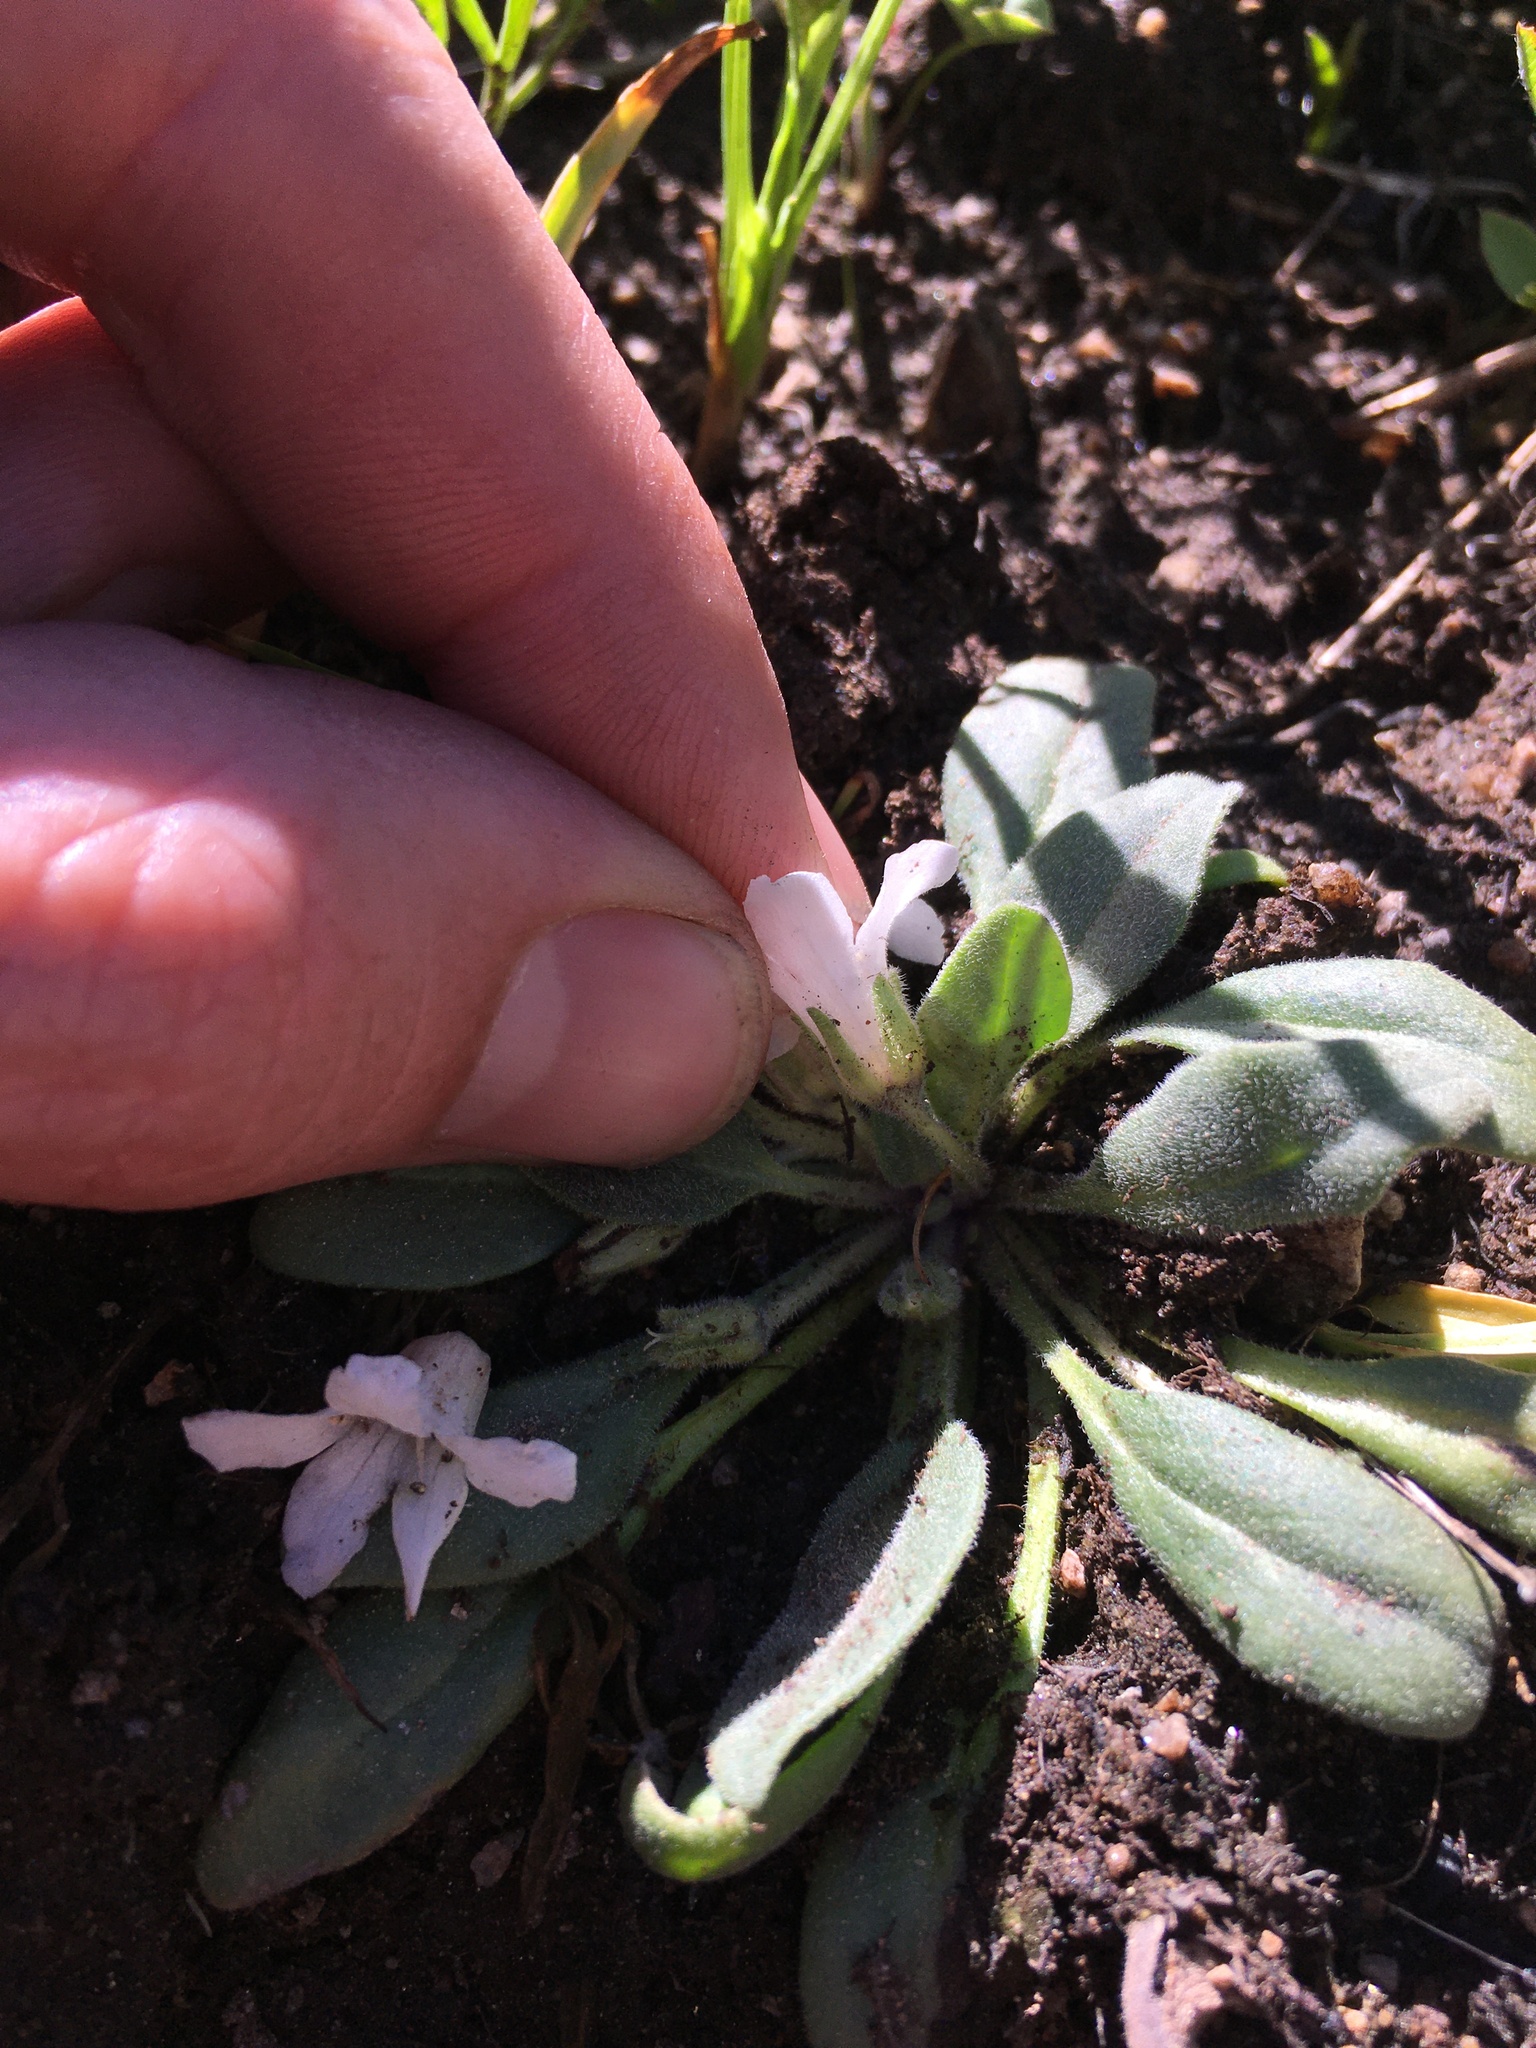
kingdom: Plantae
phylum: Tracheophyta
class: Magnoliopsida
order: Boraginales
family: Hydrophyllaceae
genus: Hesperochiron
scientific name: Hesperochiron californicus
